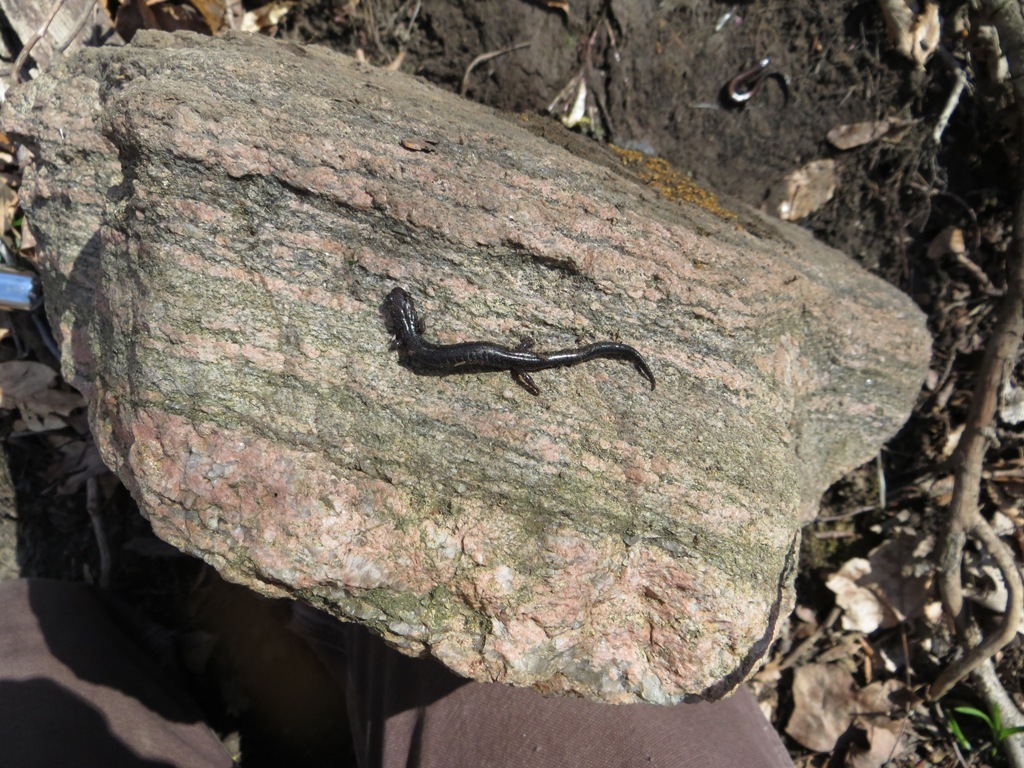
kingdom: Animalia
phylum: Chordata
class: Amphibia
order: Caudata
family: Plethodontidae
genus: Plethodon
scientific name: Plethodon cinereus
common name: Redback salamander
